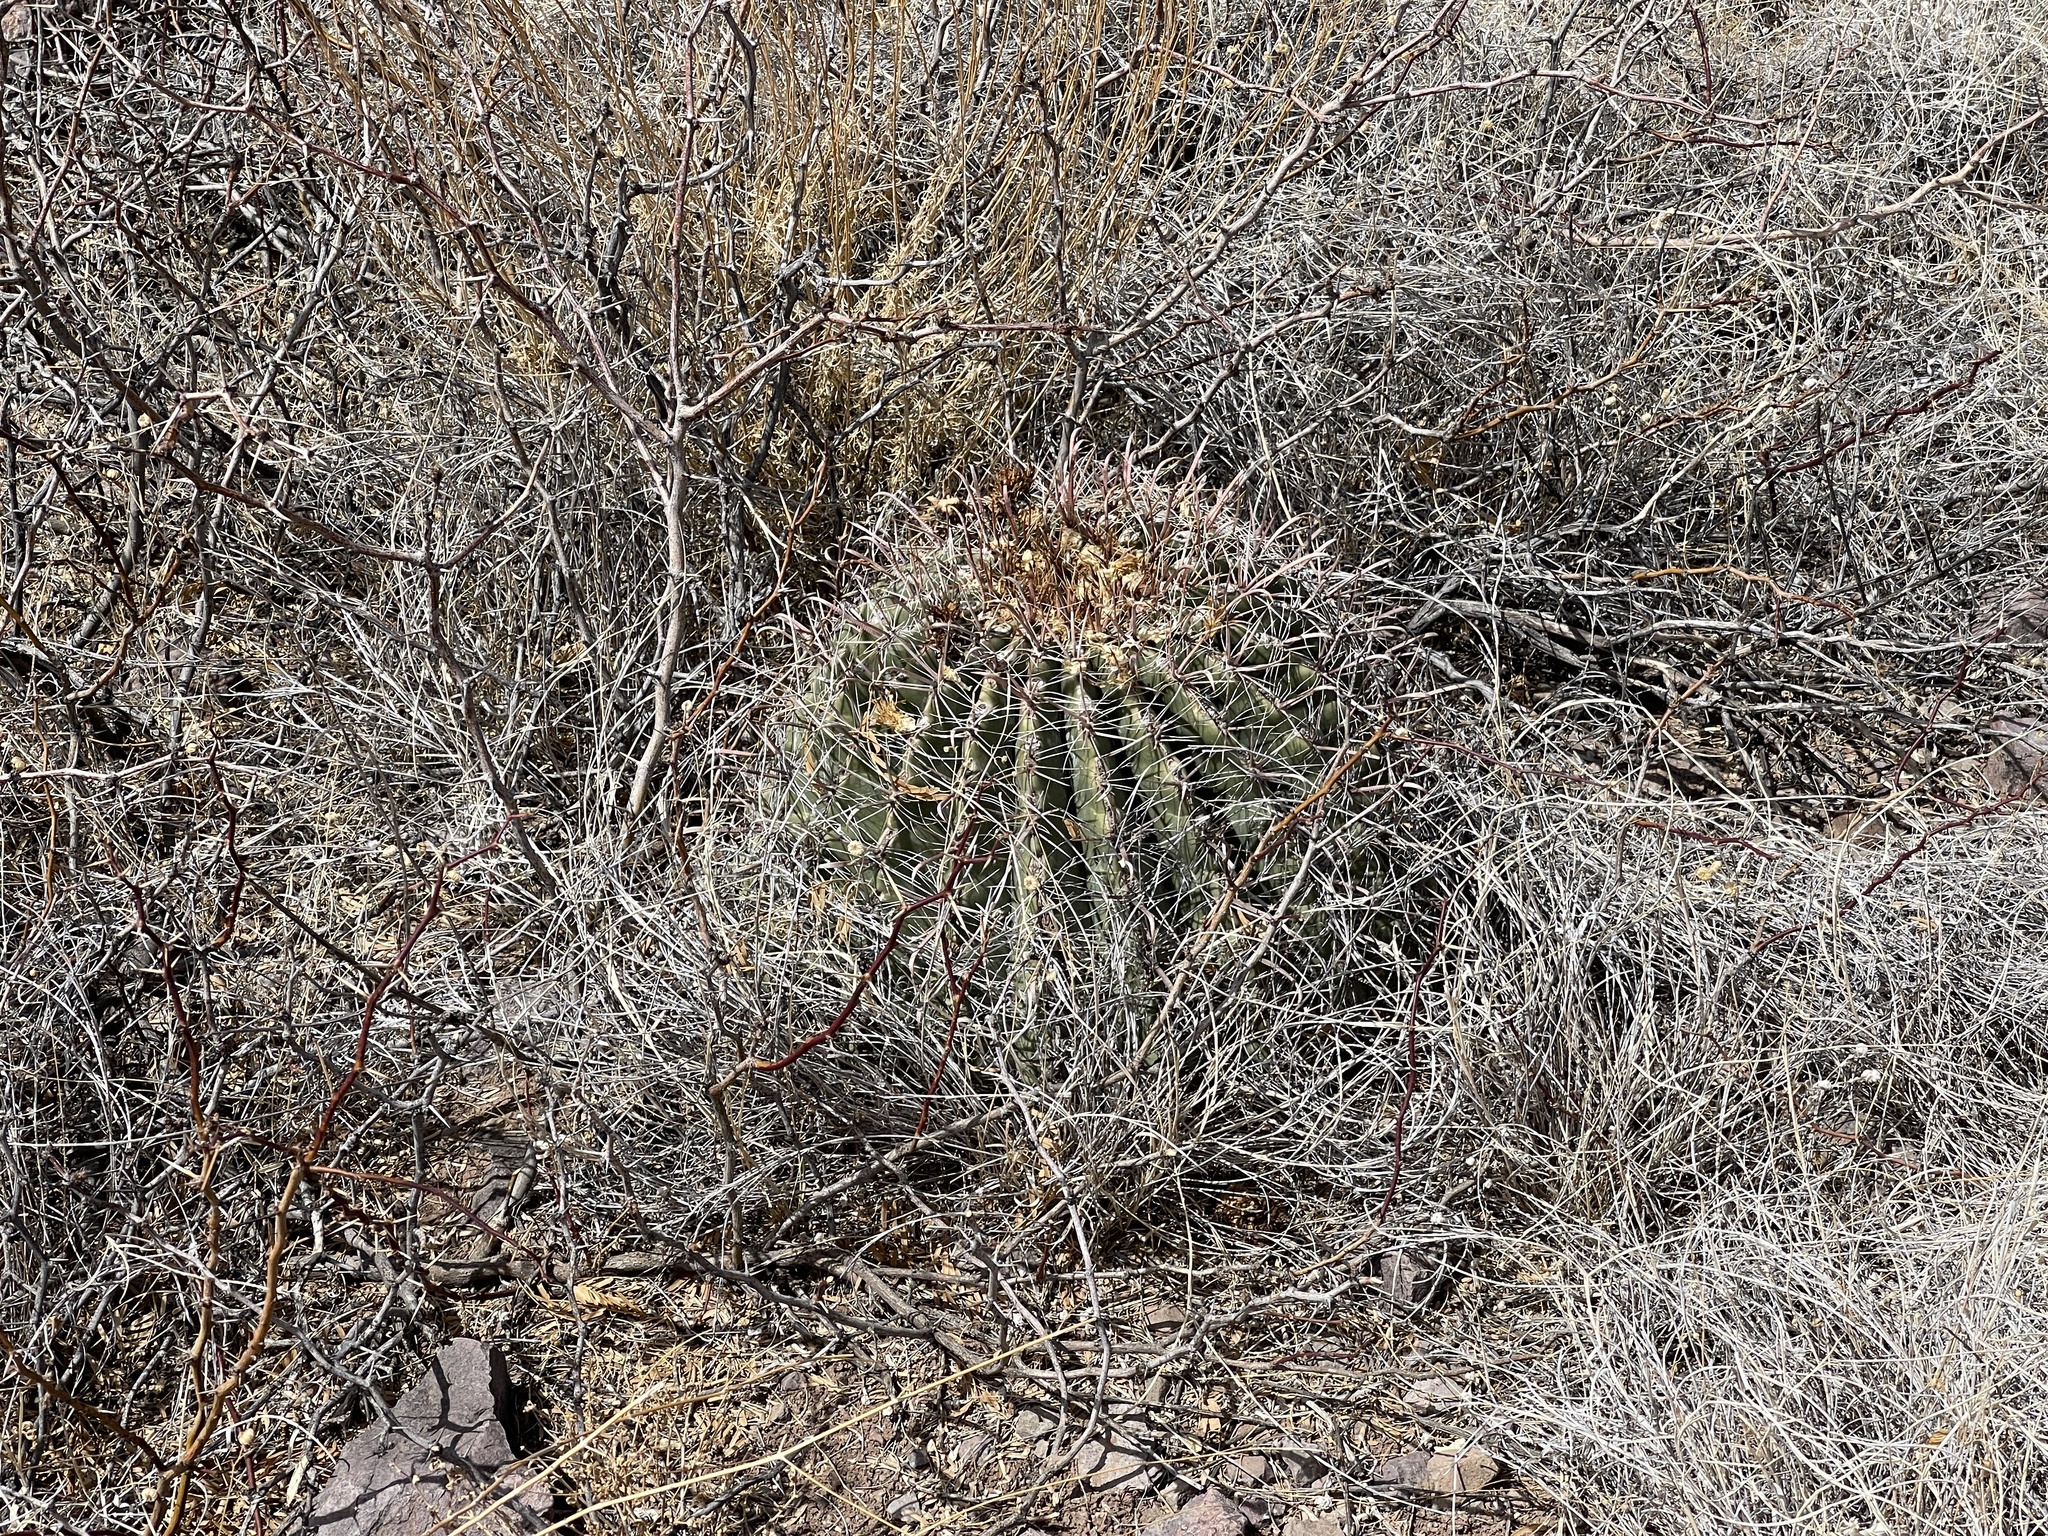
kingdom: Plantae
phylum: Tracheophyta
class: Magnoliopsida
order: Caryophyllales
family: Cactaceae
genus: Ferocactus
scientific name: Ferocactus wislizeni
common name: Candy barrel cactus
